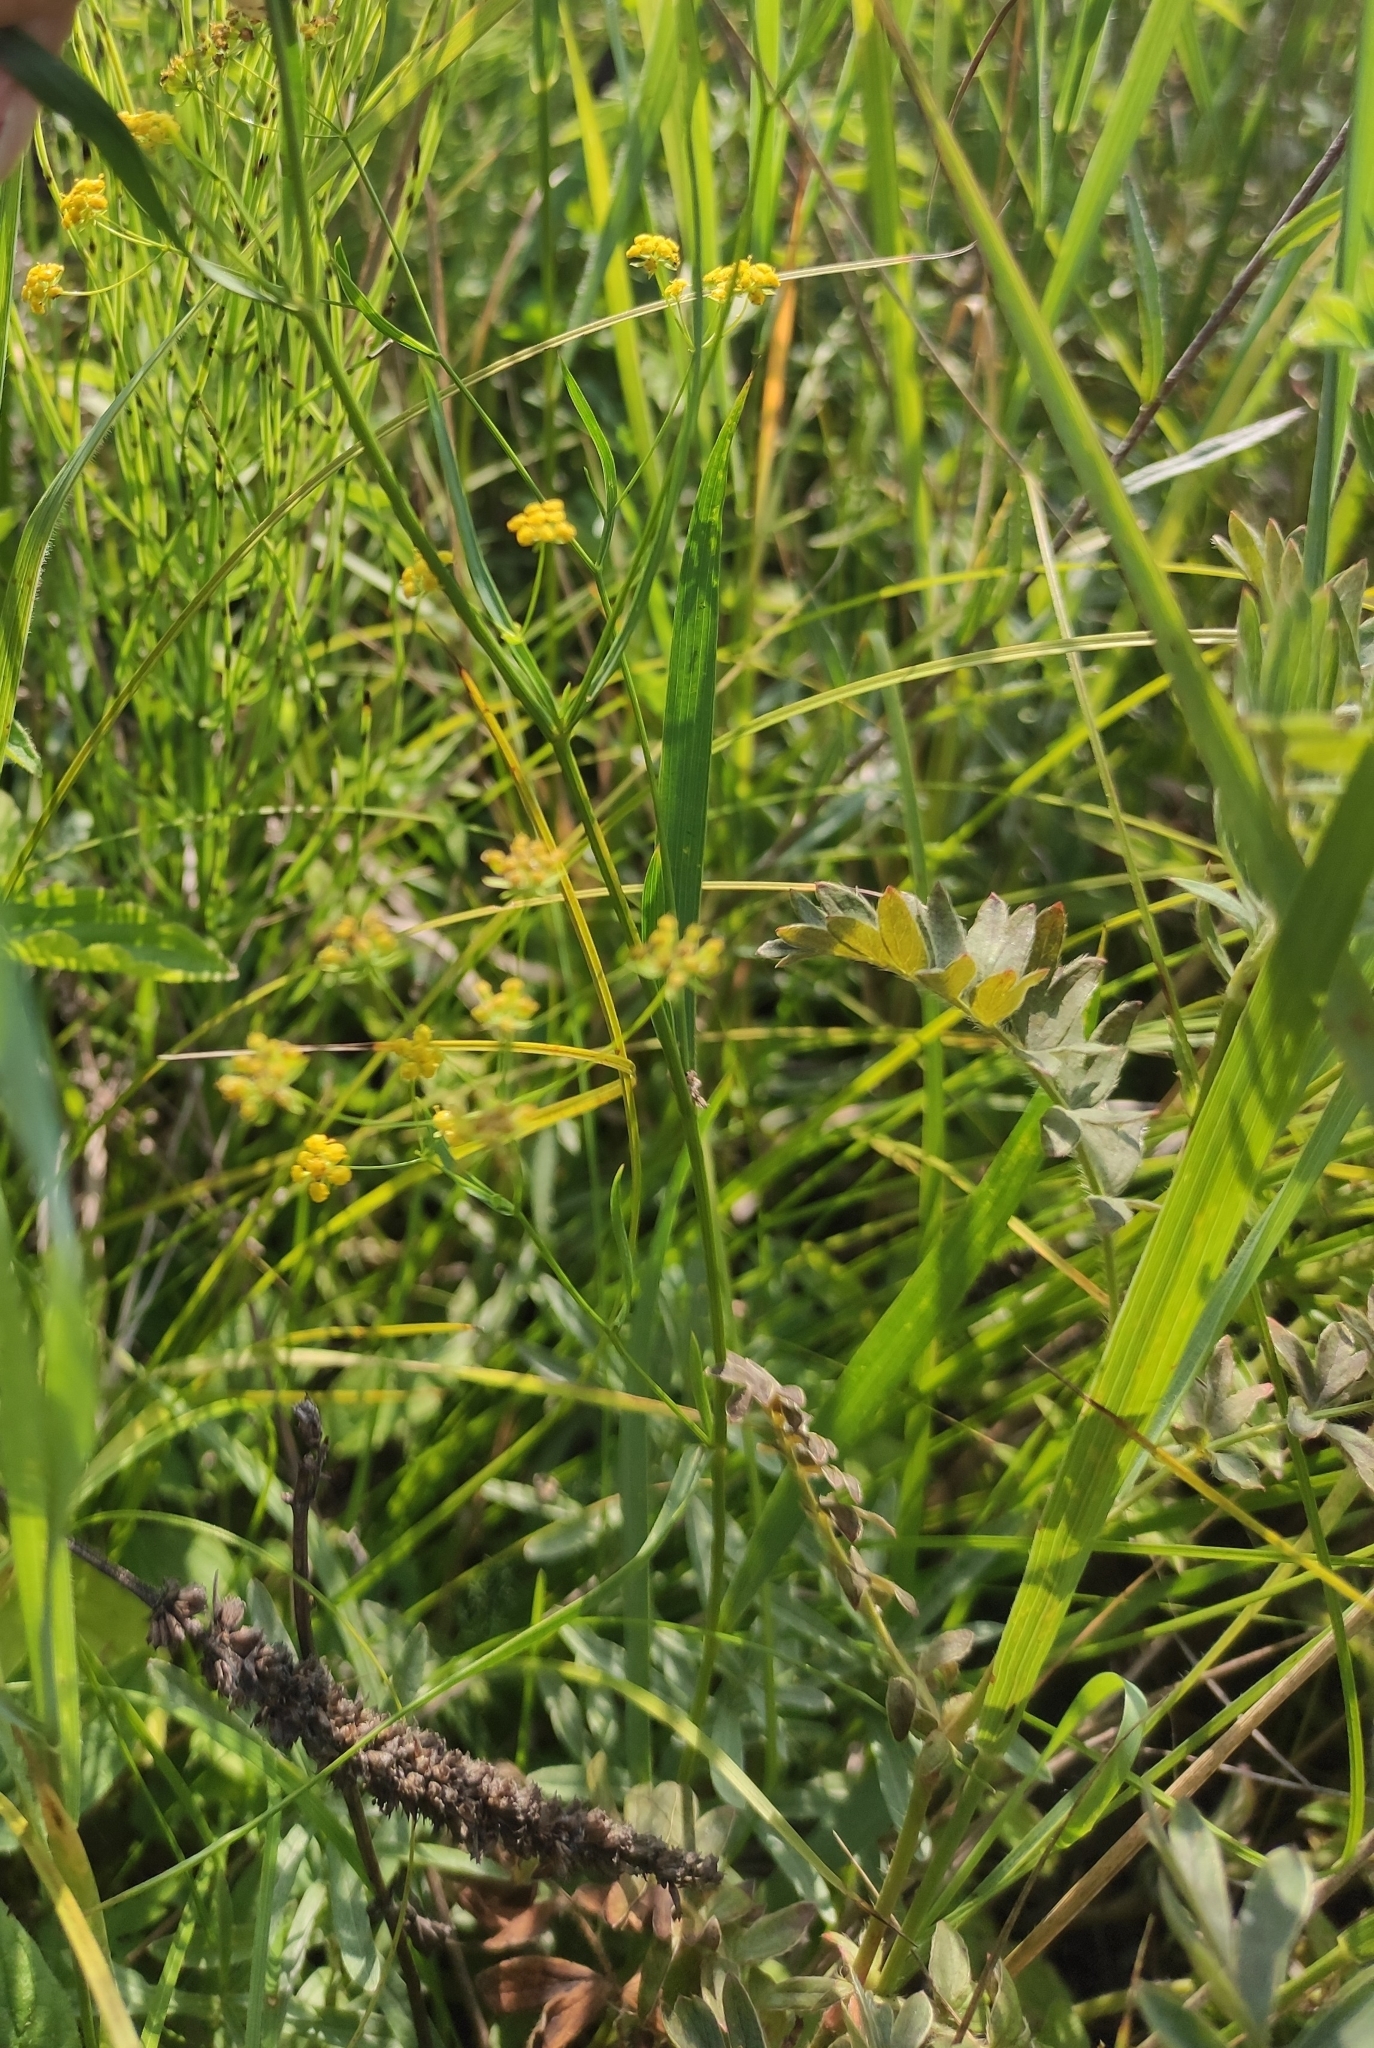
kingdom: Plantae
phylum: Tracheophyta
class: Magnoliopsida
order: Apiales
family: Apiaceae
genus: Bupleurum
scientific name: Bupleurum scorzonerifolium
